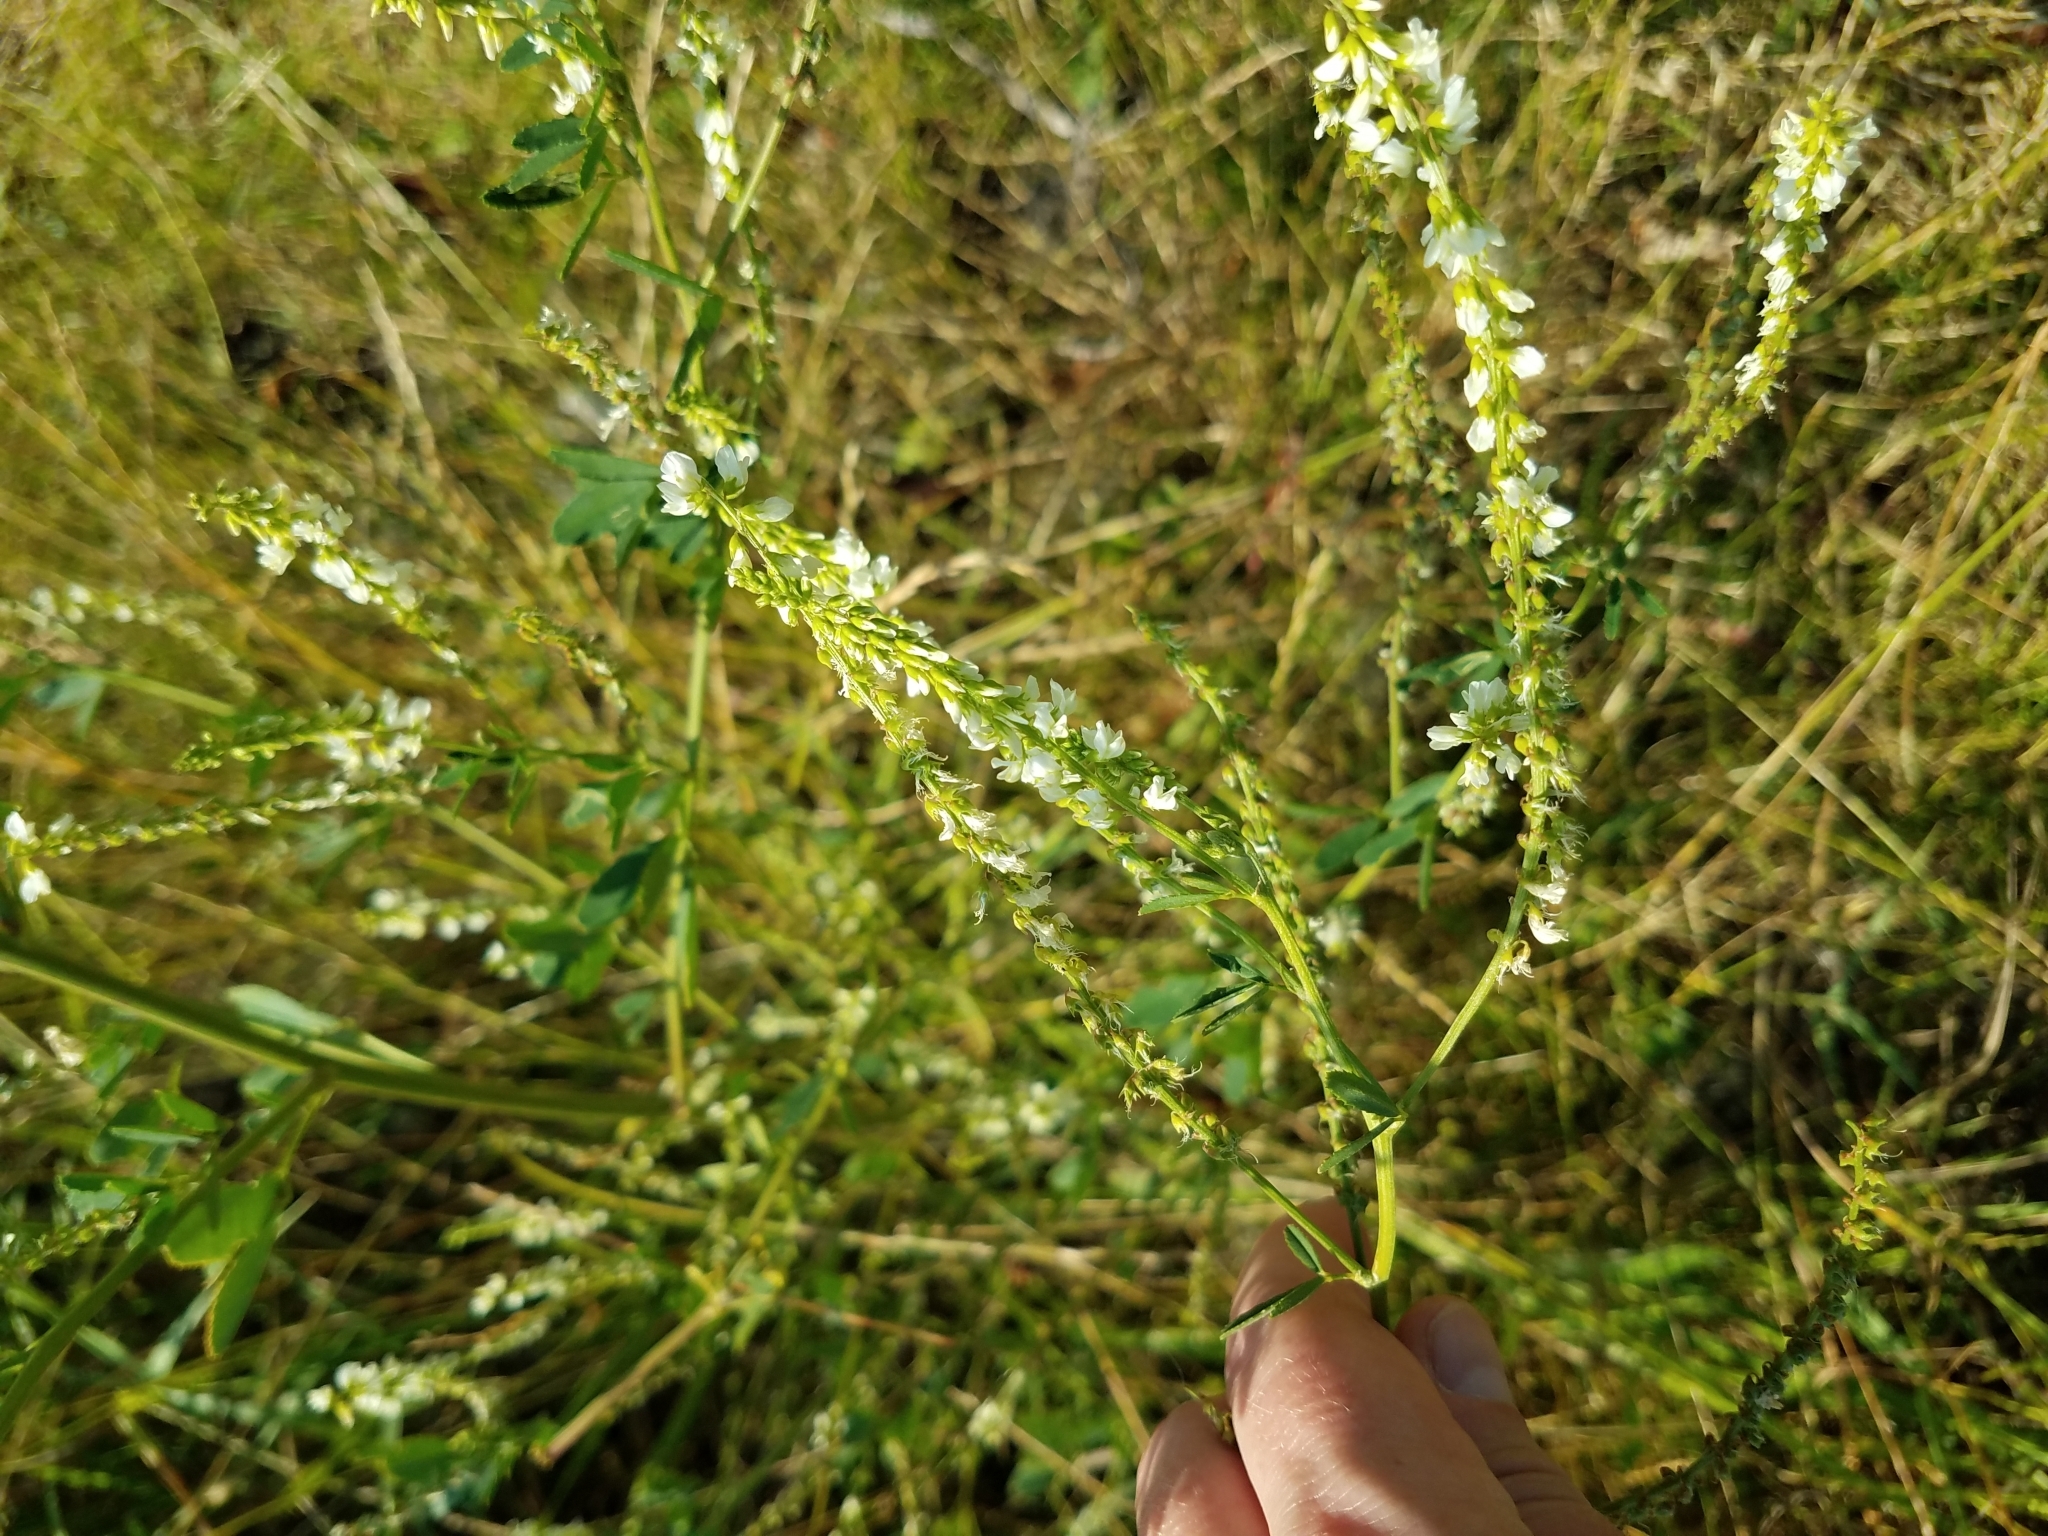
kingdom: Plantae
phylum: Tracheophyta
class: Magnoliopsida
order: Fabales
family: Fabaceae
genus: Melilotus
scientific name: Melilotus albus
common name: White melilot
